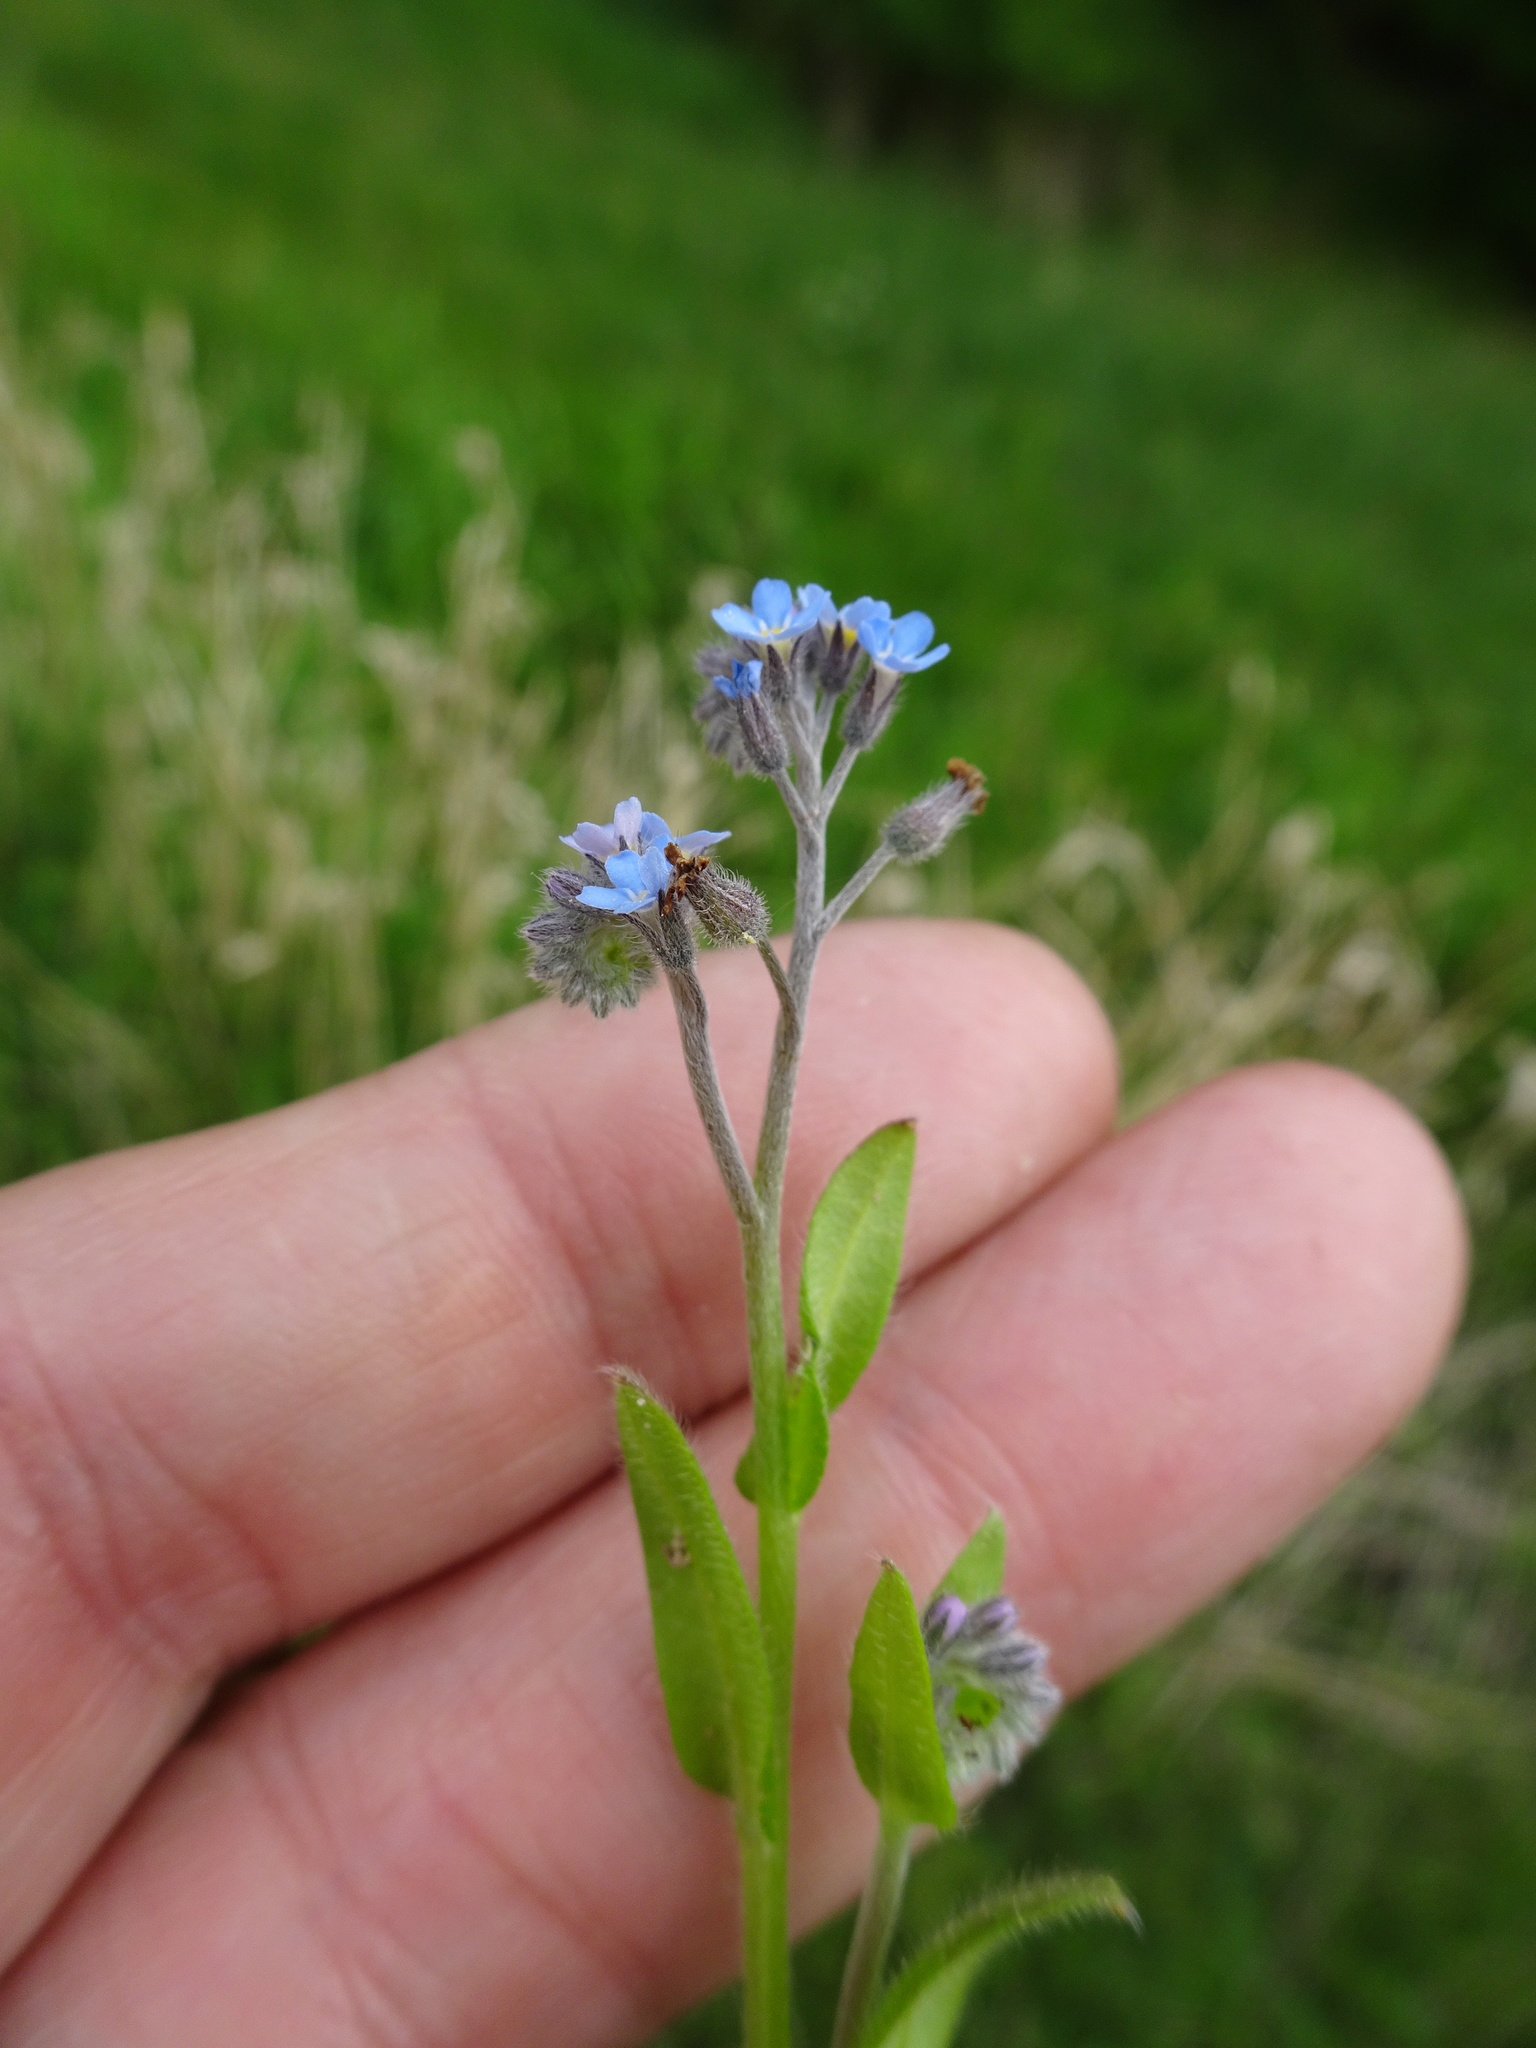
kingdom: Plantae
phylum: Tracheophyta
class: Magnoliopsida
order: Boraginales
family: Boraginaceae
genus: Myosotis
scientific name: Myosotis arvensis
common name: Field forget-me-not
